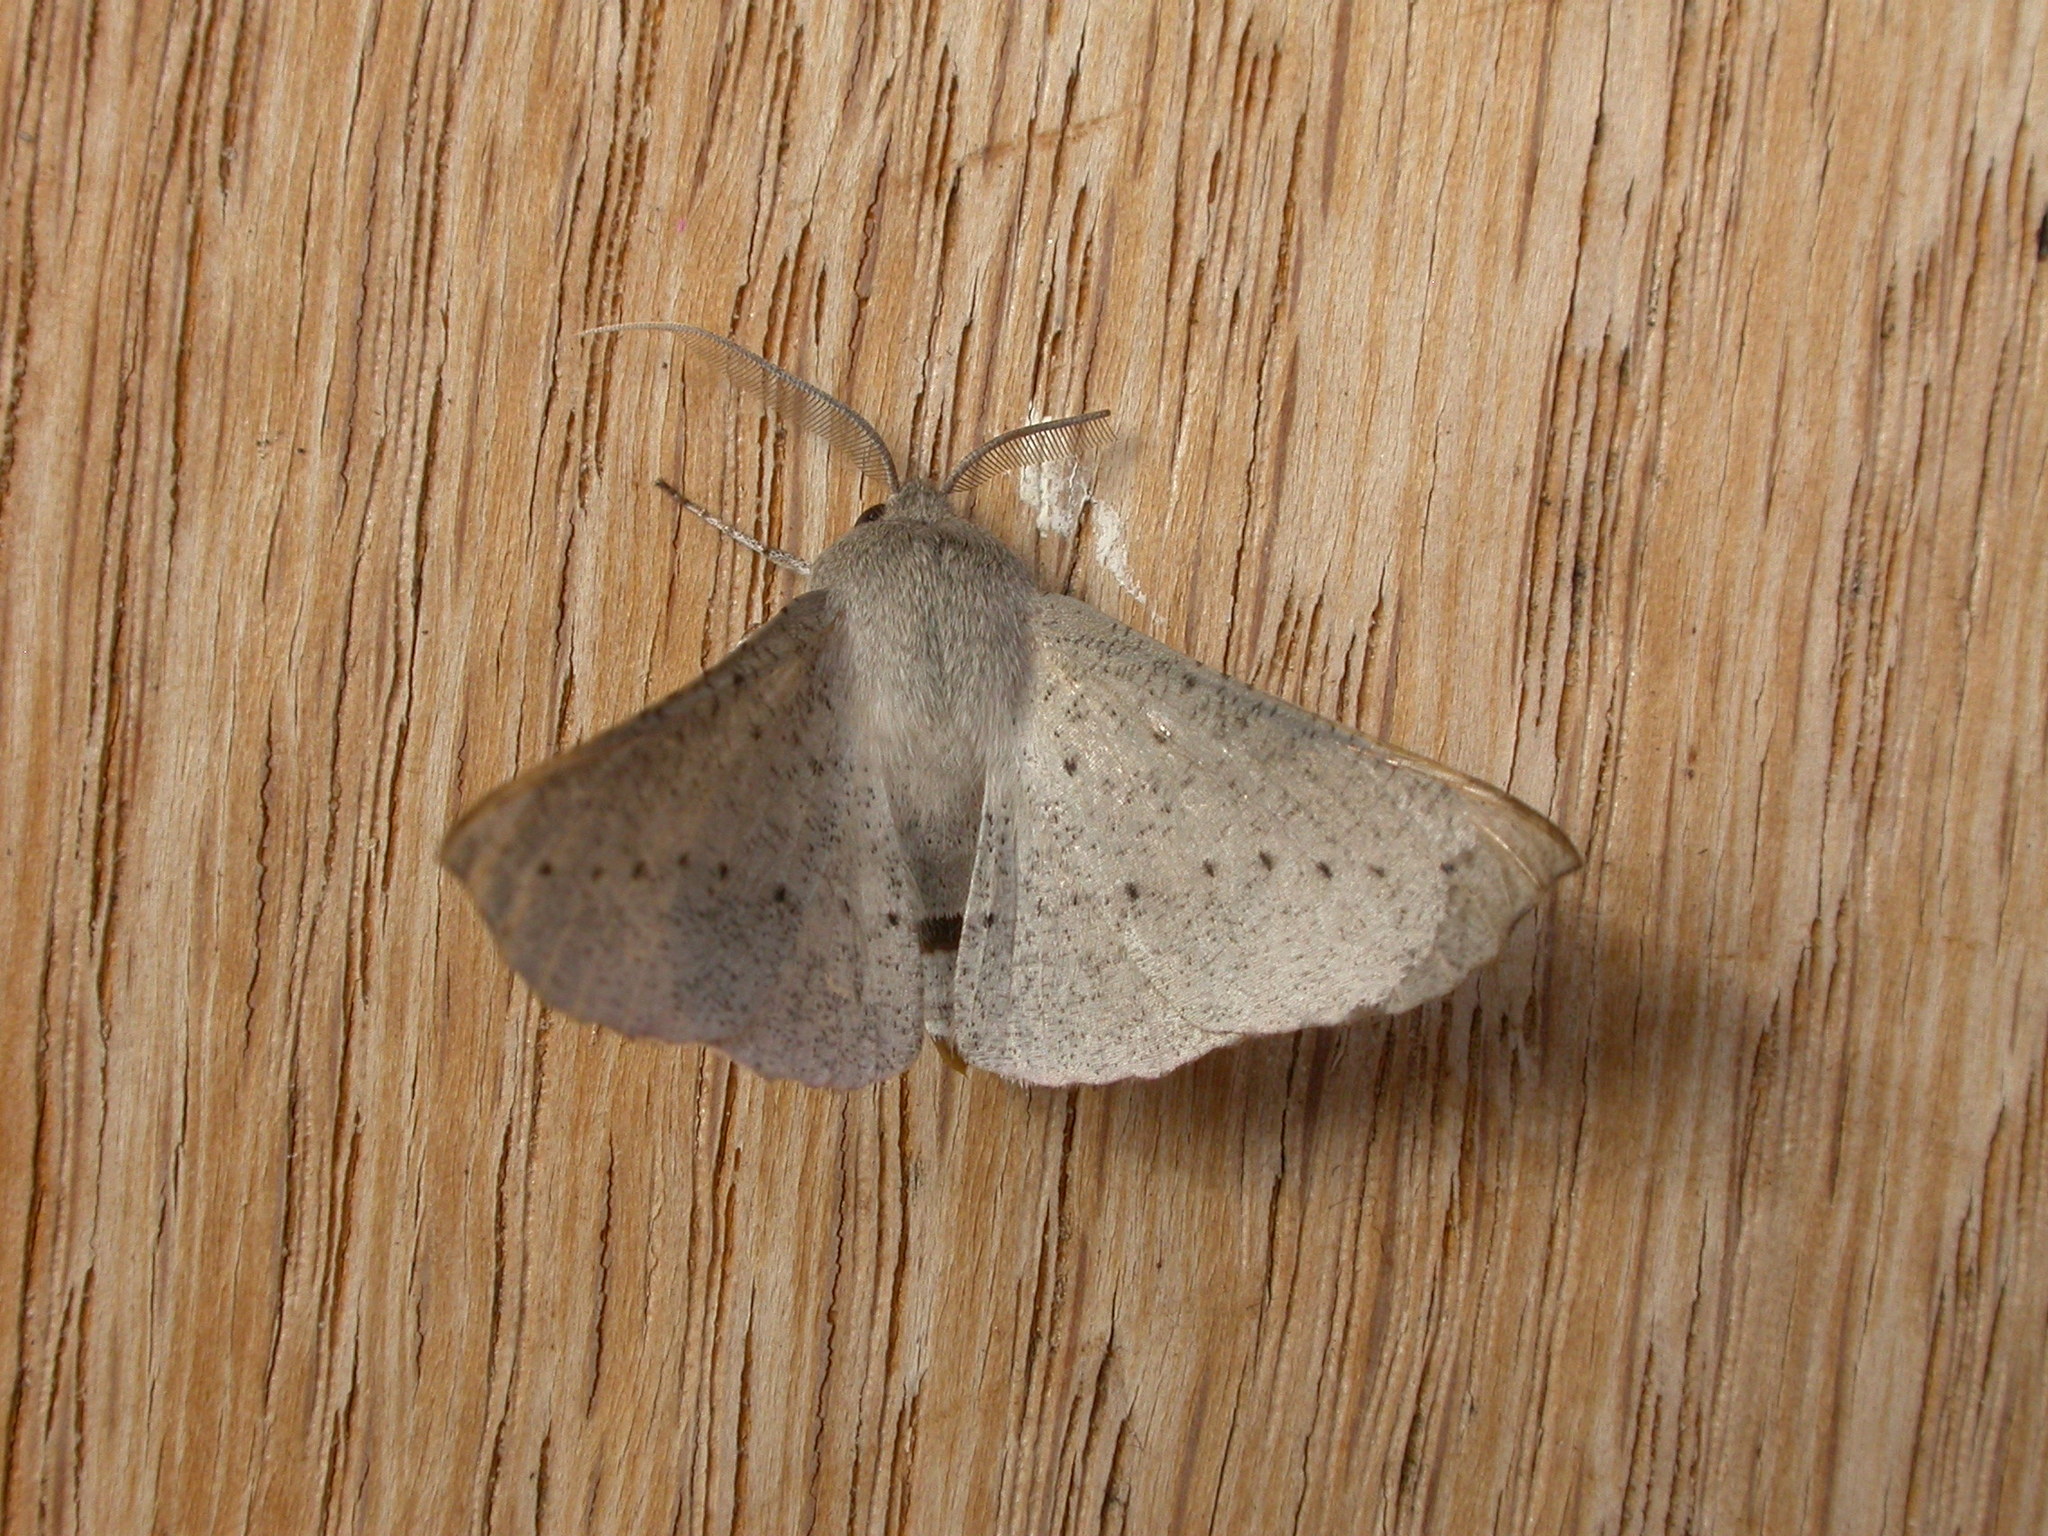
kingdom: Animalia
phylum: Arthropoda
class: Insecta
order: Lepidoptera
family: Geometridae
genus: Oenochroma
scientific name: Oenochroma subustaria
